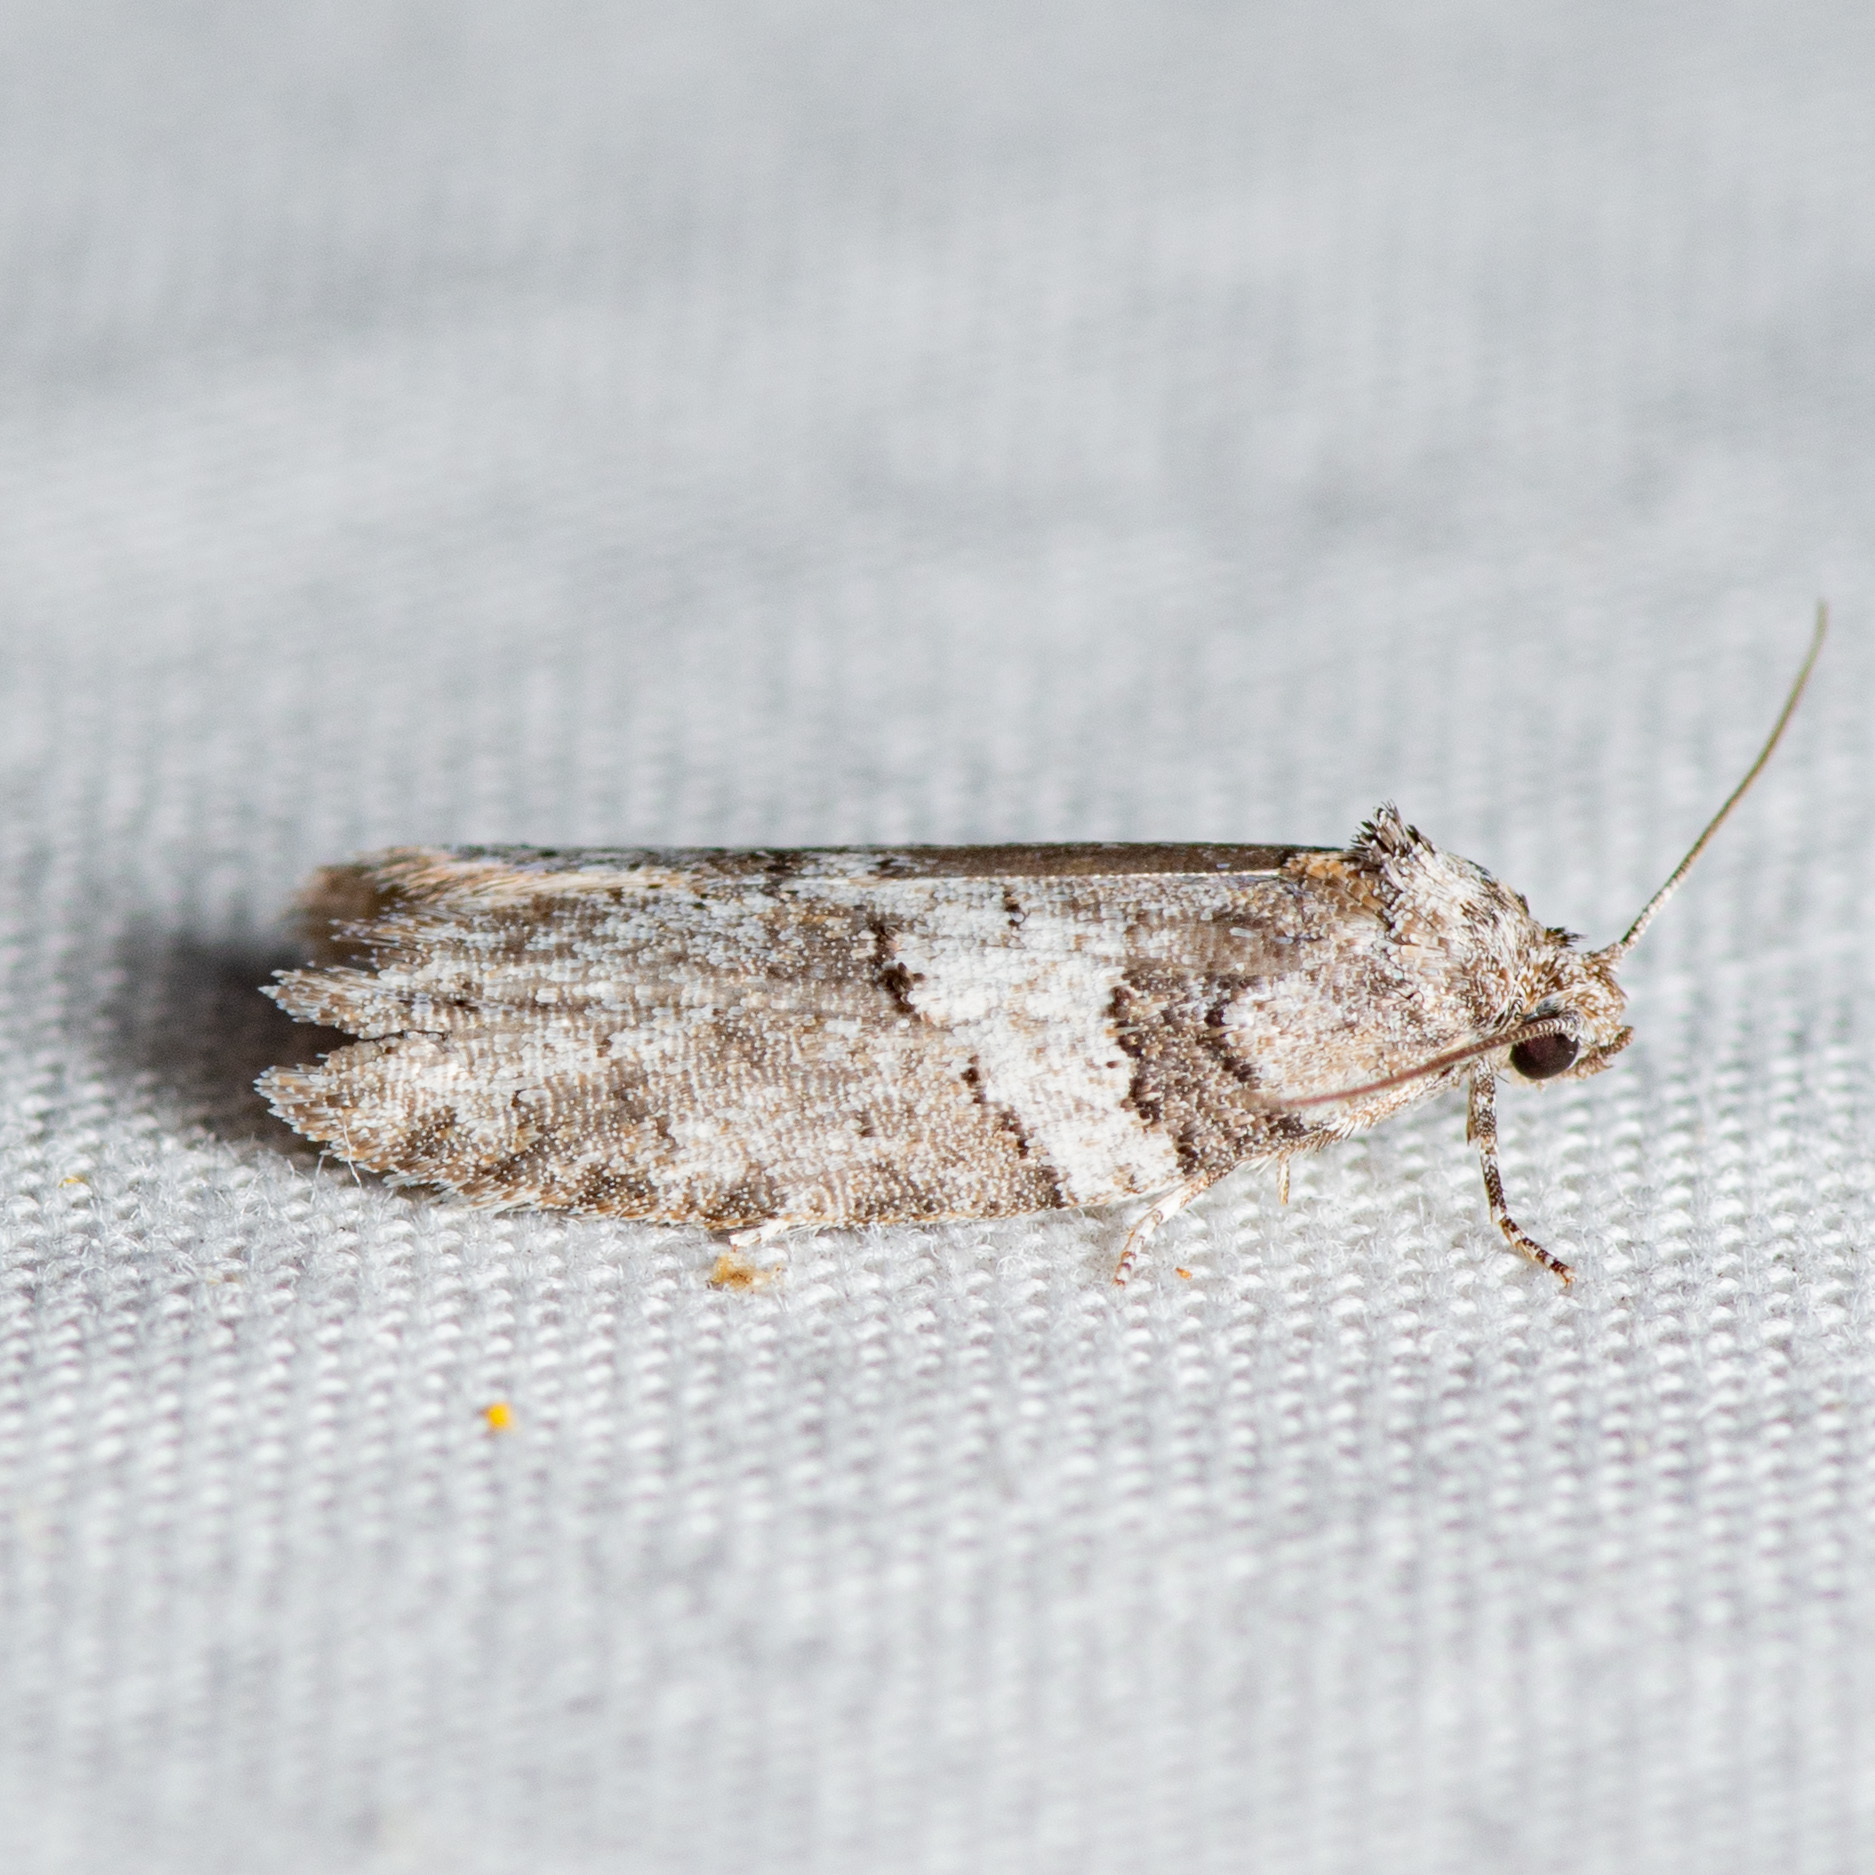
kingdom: Animalia
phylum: Arthropoda
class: Insecta
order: Lepidoptera
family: Tortricidae
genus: Decodes
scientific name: Decodes basiplagana
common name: Gray-marked tortricid
